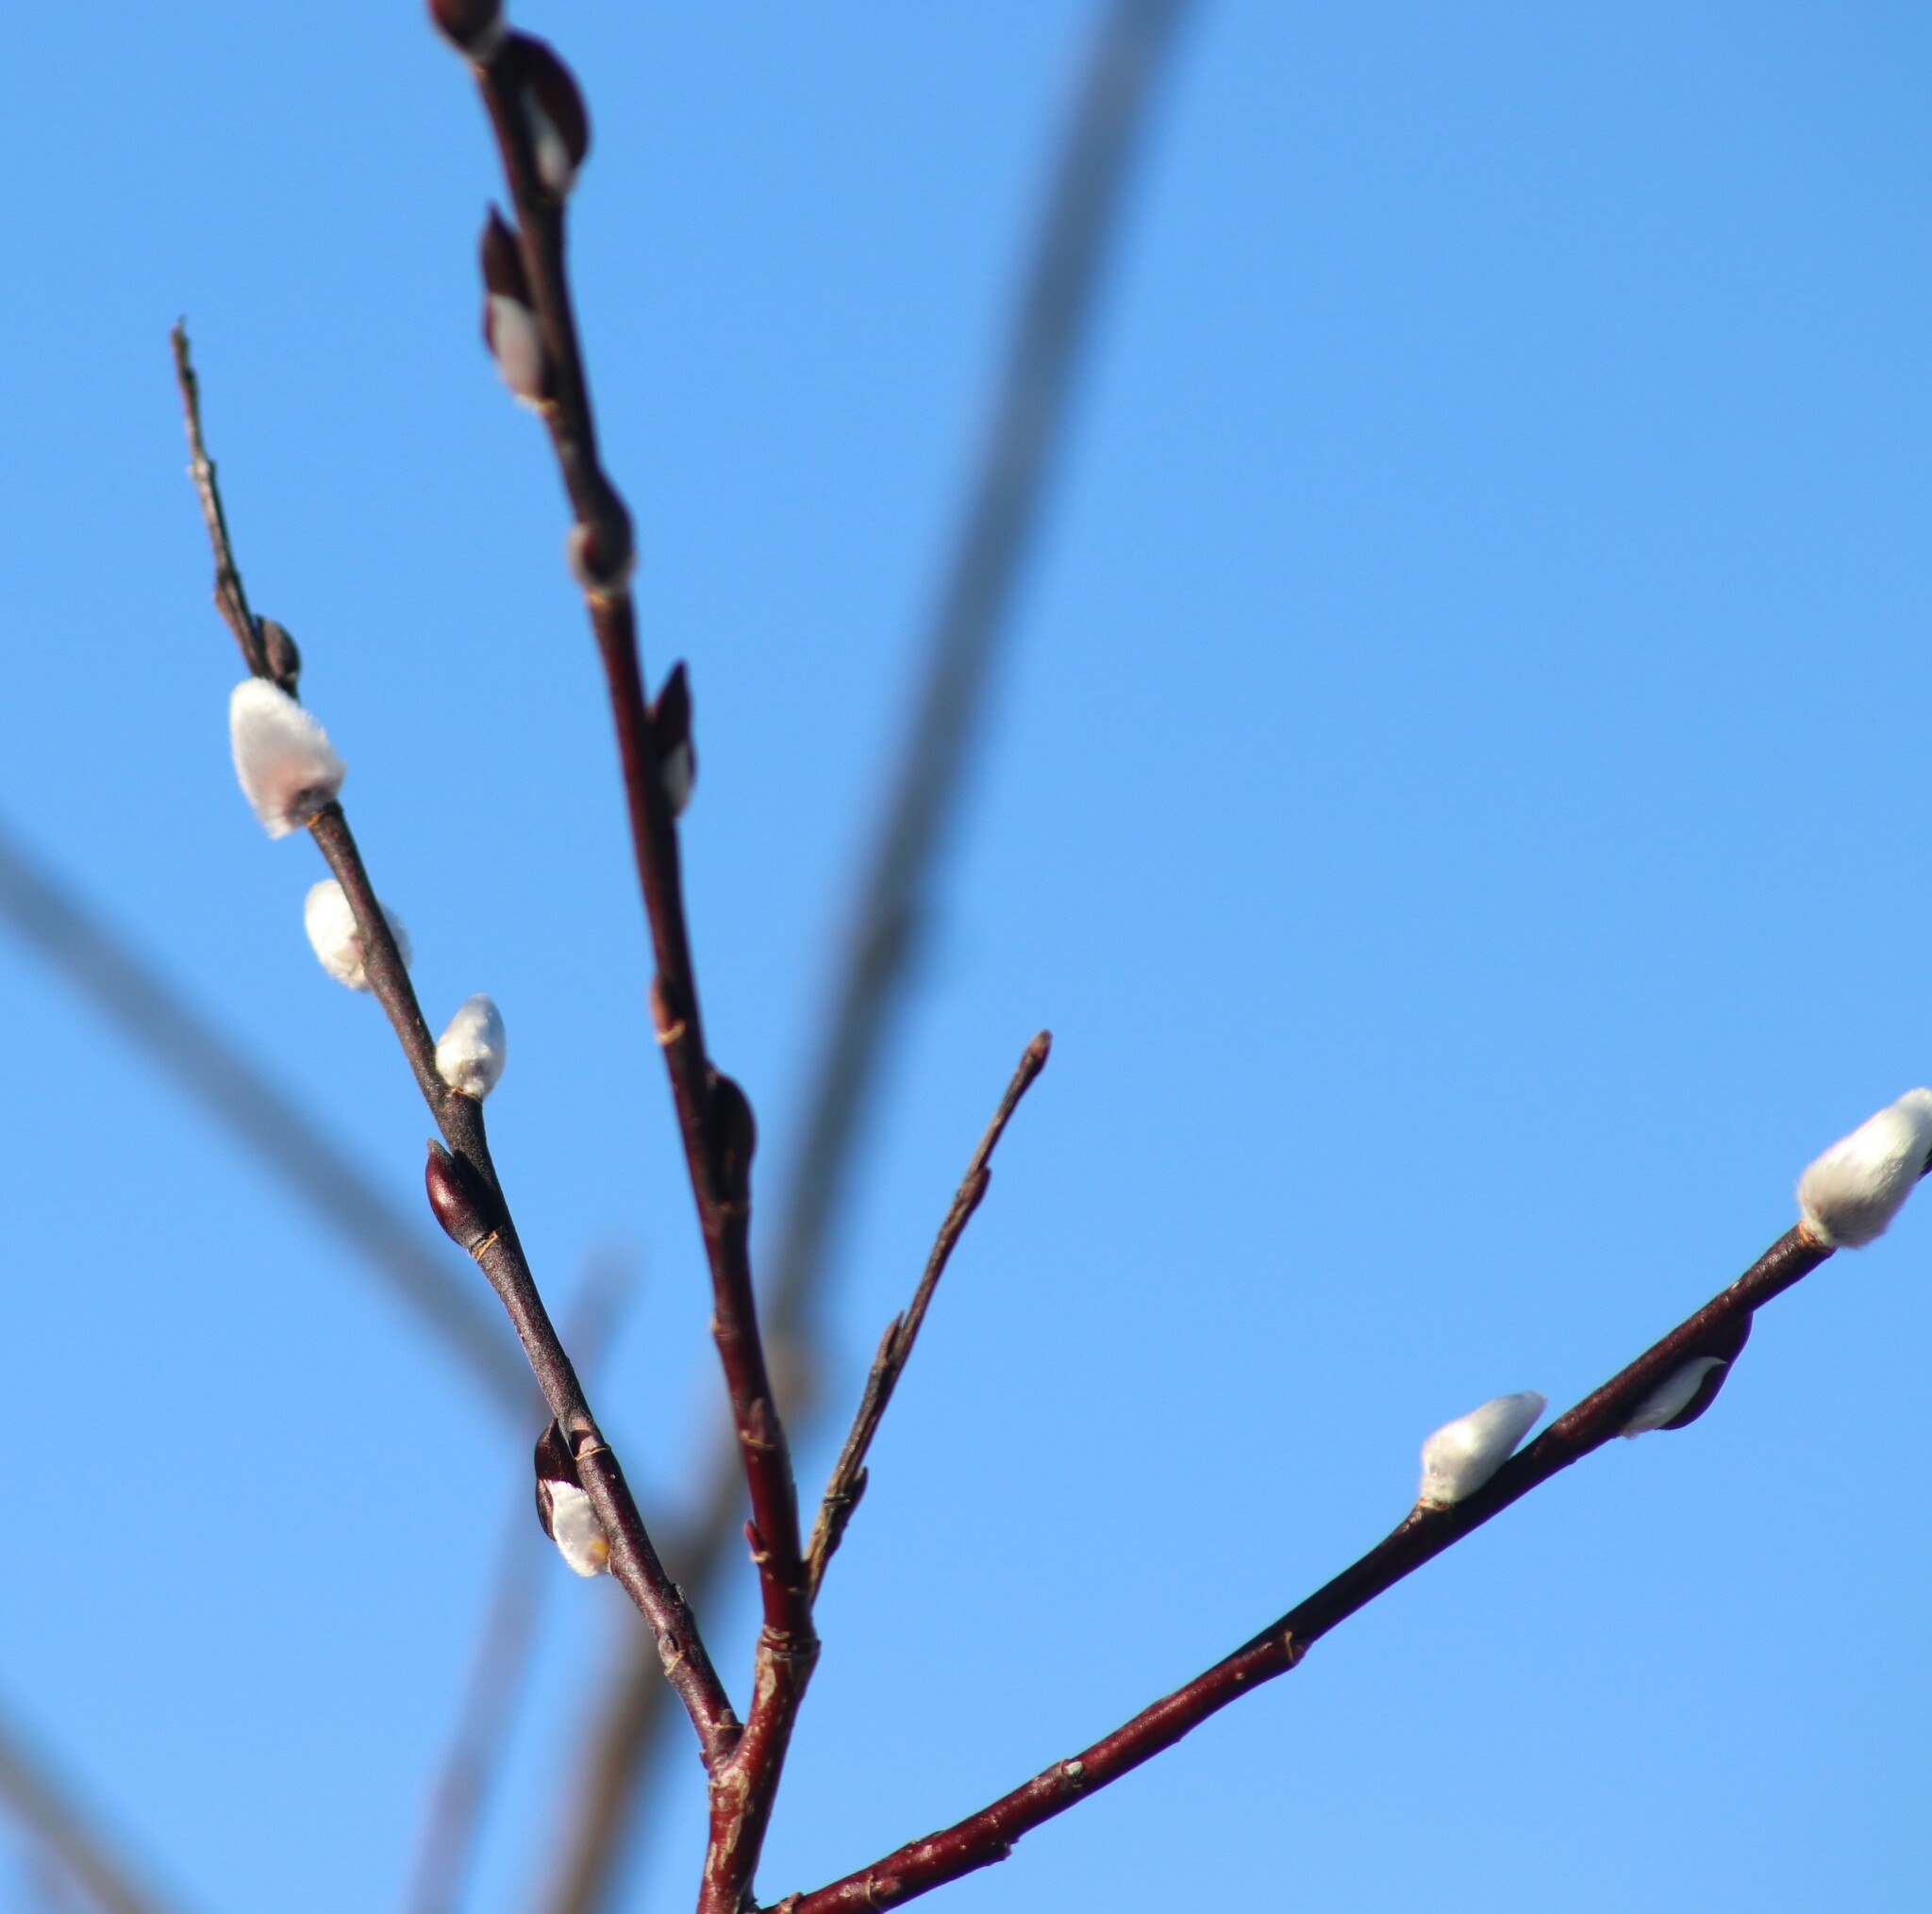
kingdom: Plantae
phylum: Tracheophyta
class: Magnoliopsida
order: Malpighiales
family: Salicaceae
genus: Salix
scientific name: Salix discolor
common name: Glaucous willow
